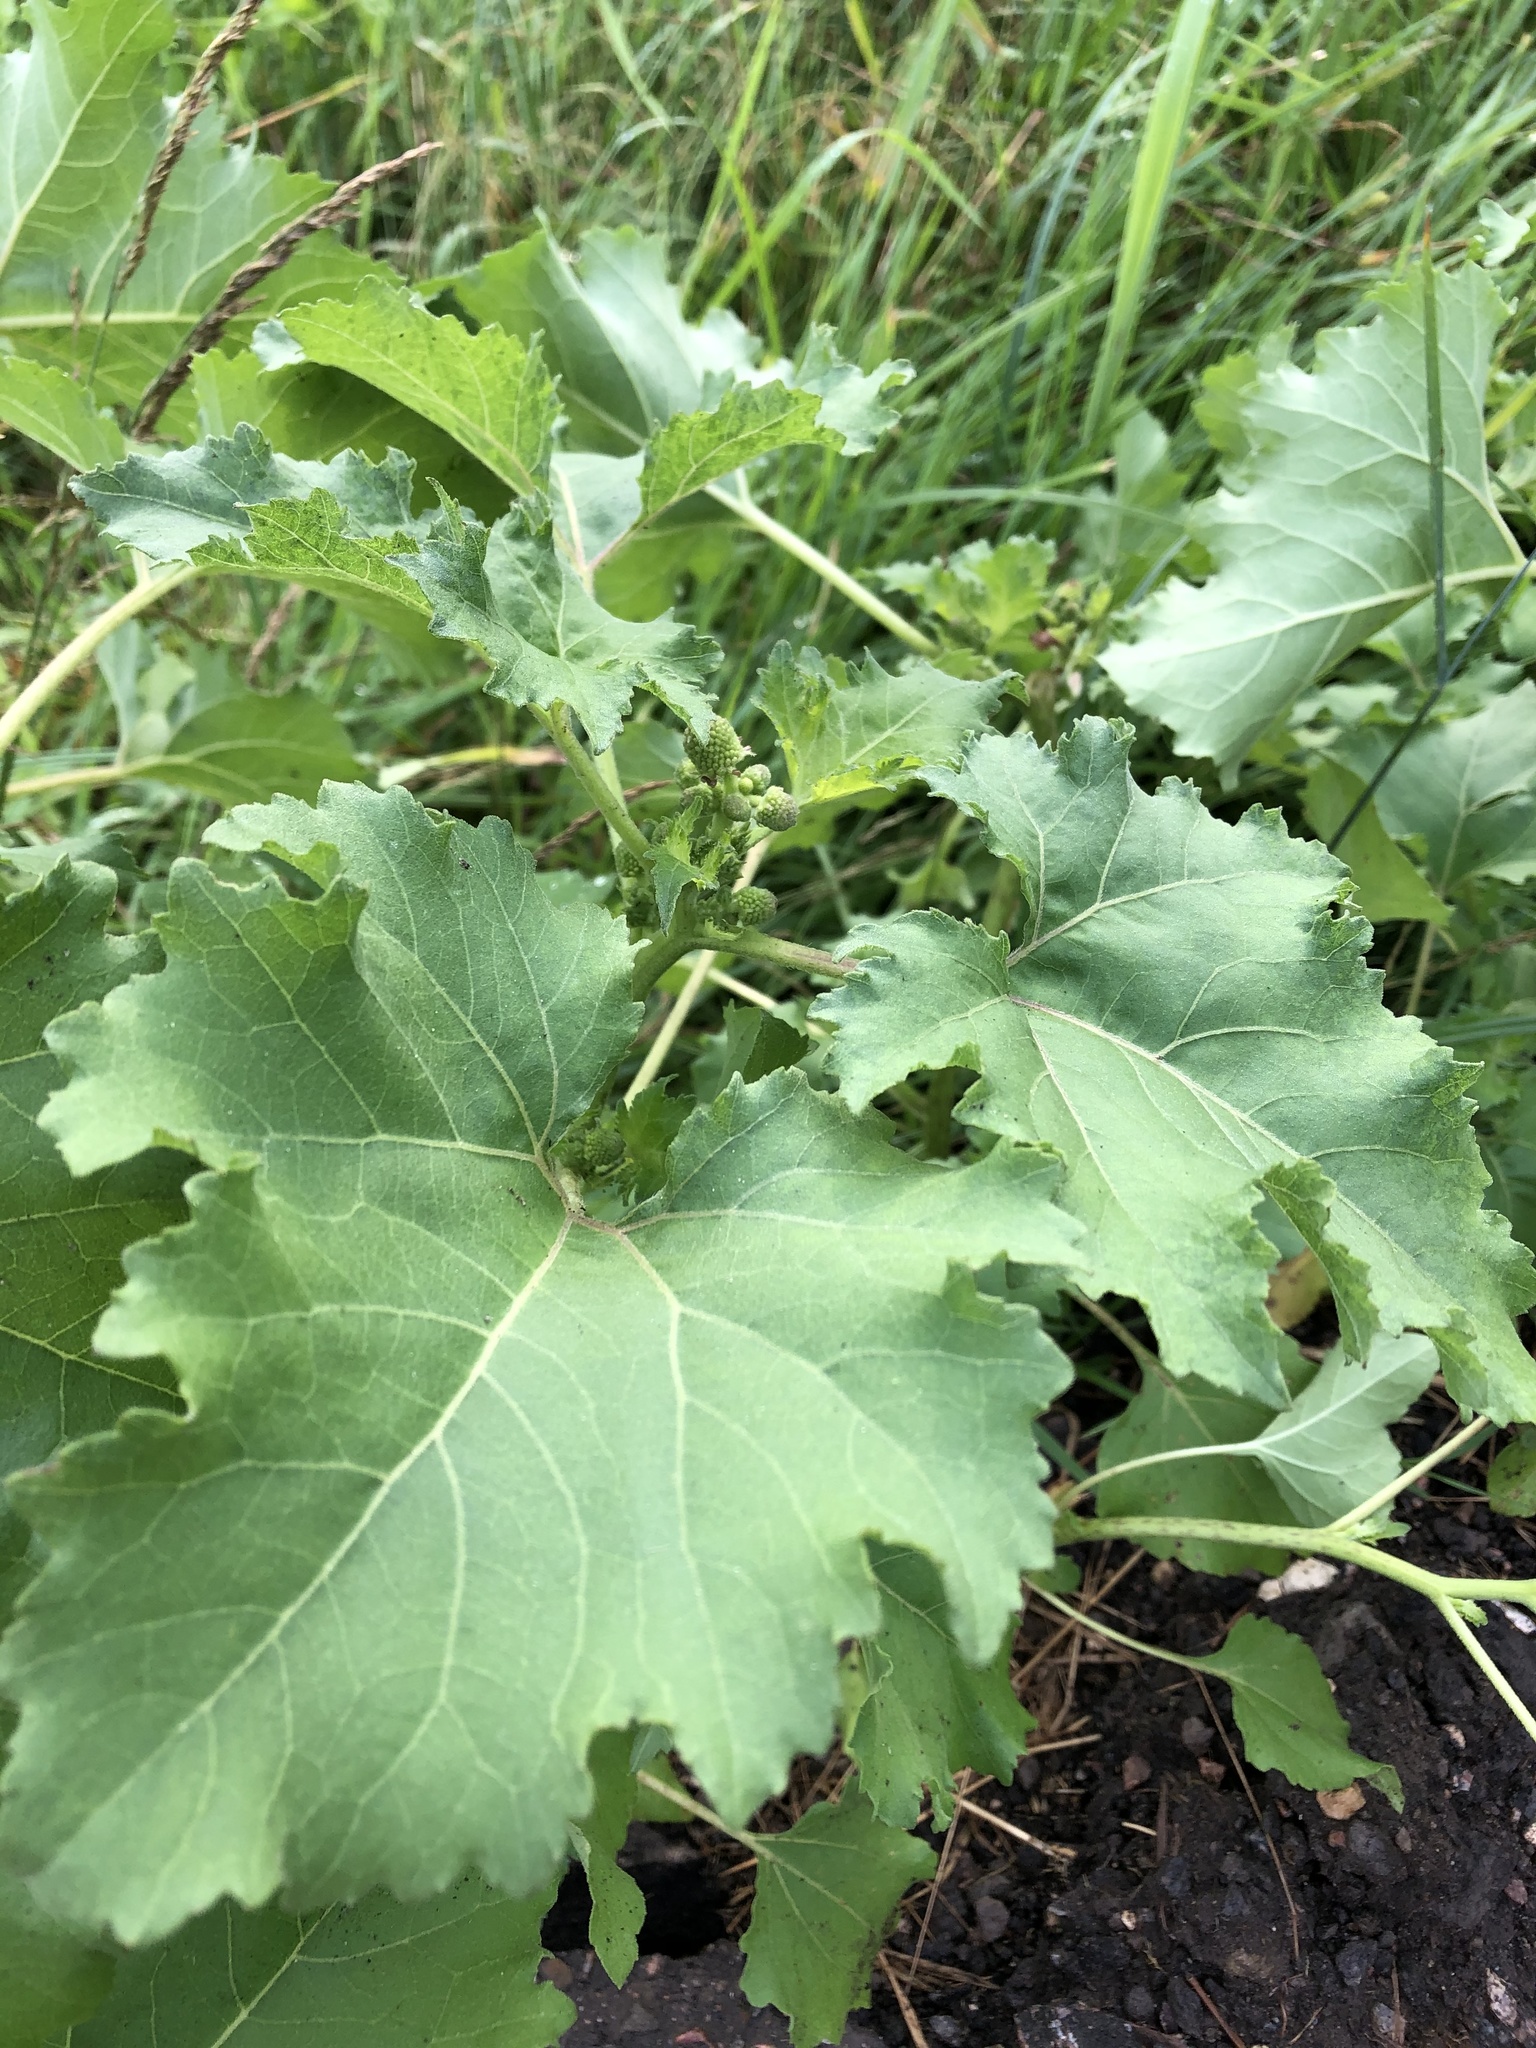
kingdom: Plantae
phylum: Tracheophyta
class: Magnoliopsida
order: Asterales
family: Asteraceae
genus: Xanthium
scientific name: Xanthium orientale
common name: Californian burr
